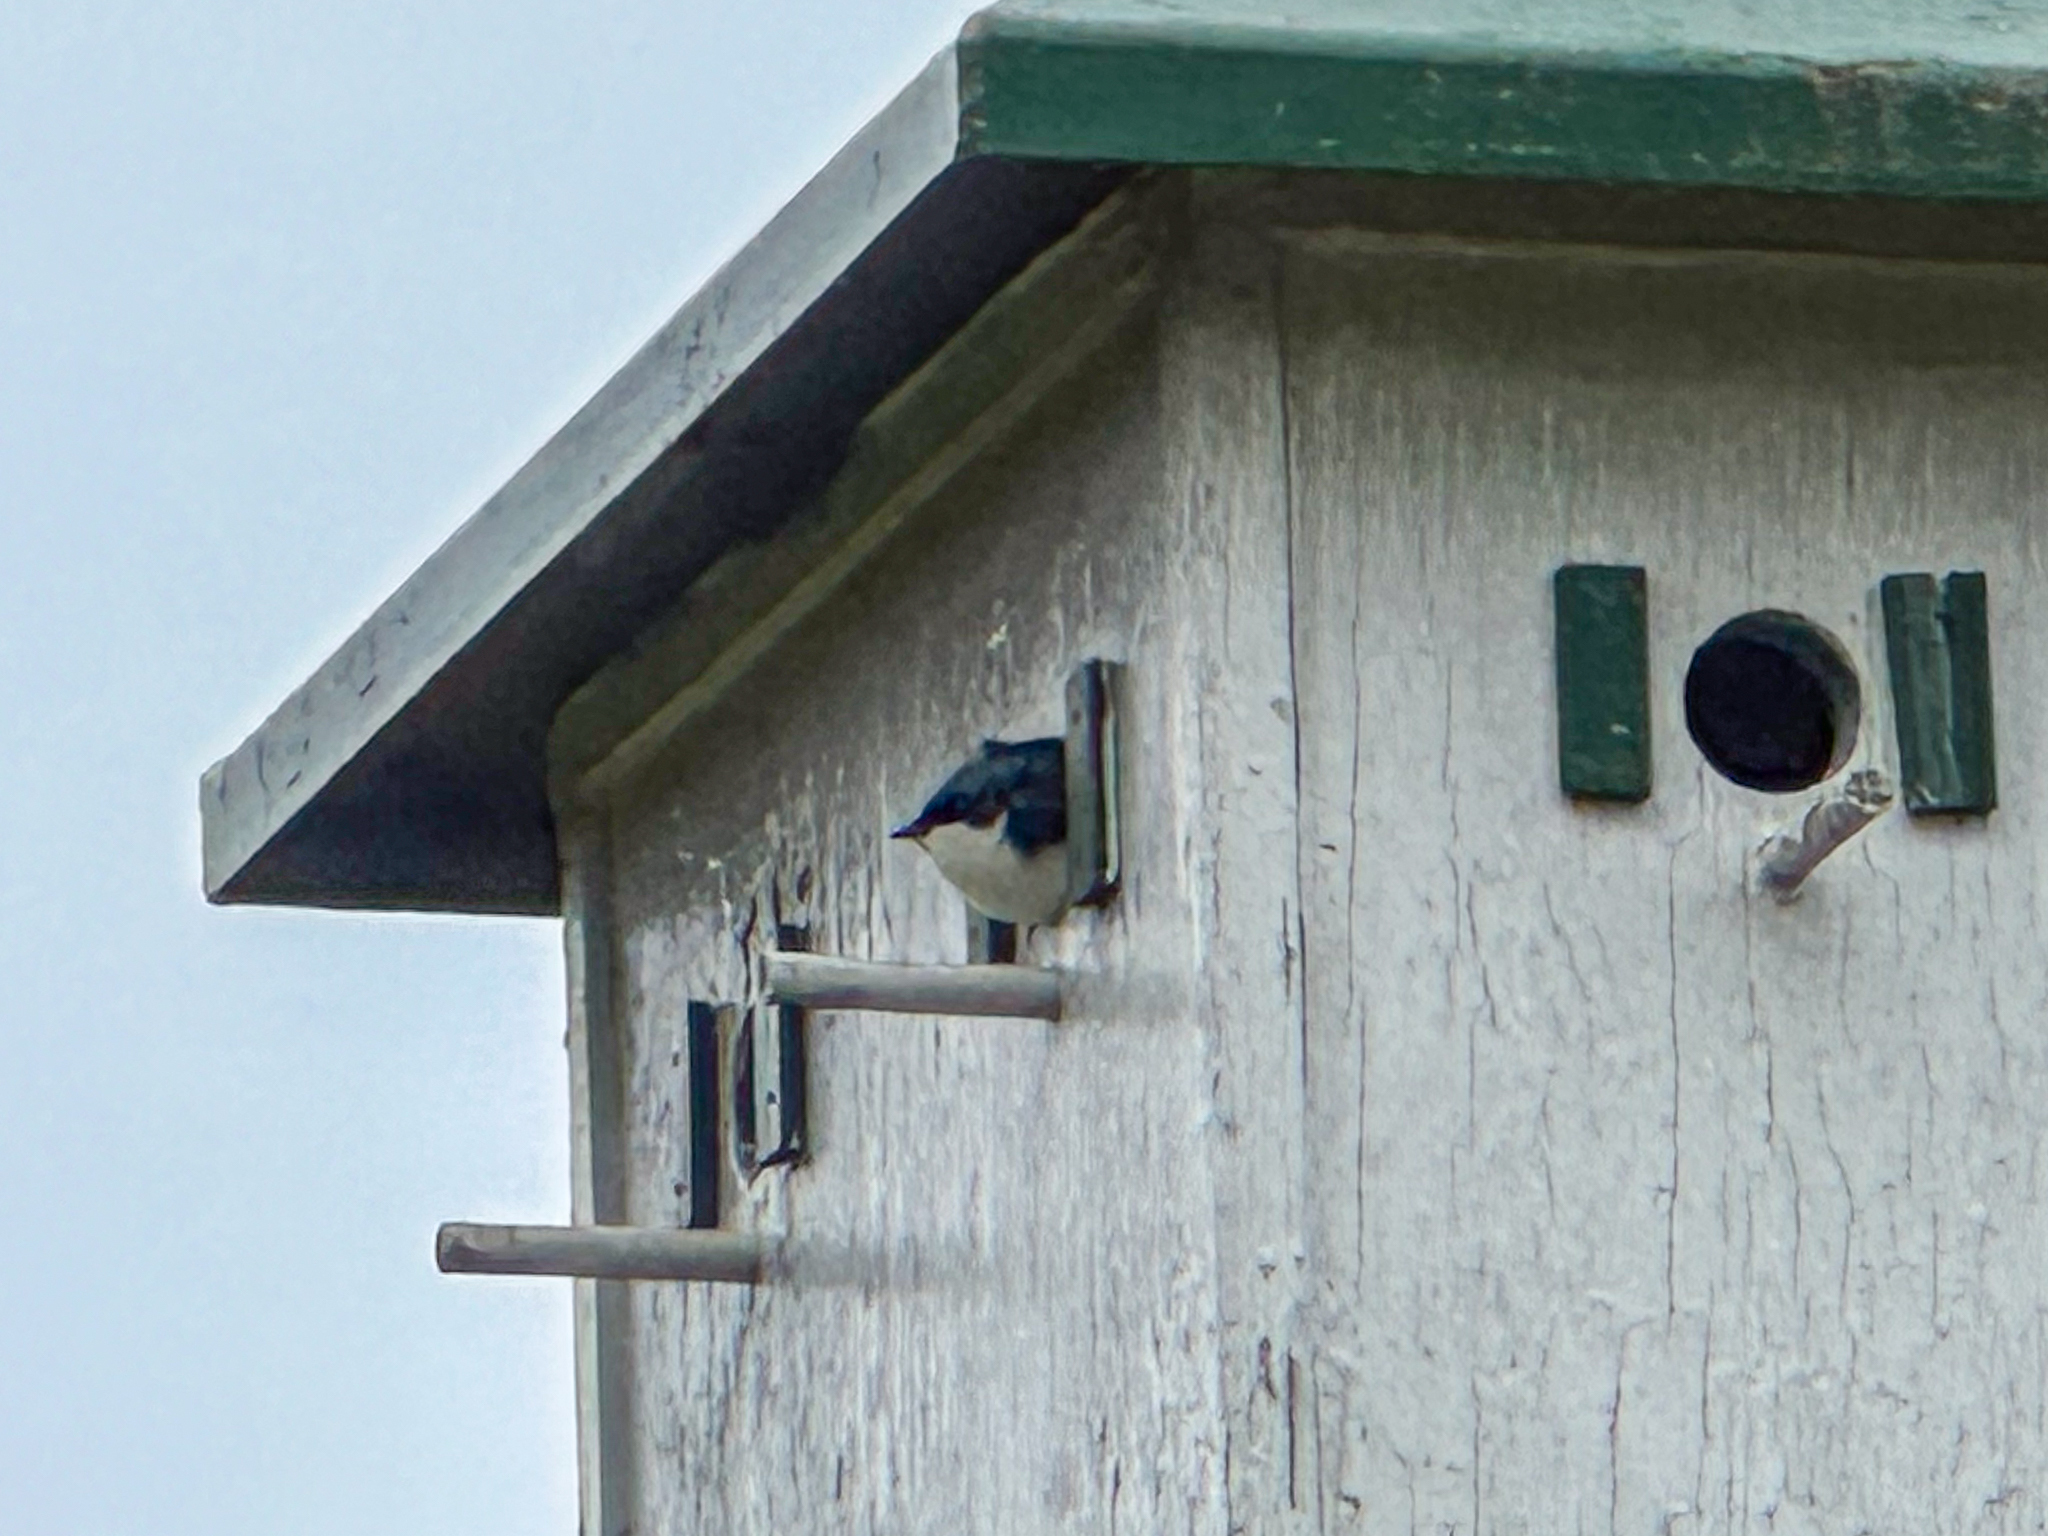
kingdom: Animalia
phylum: Chordata
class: Aves
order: Passeriformes
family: Hirundinidae
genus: Tachycineta
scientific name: Tachycineta bicolor
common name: Tree swallow
